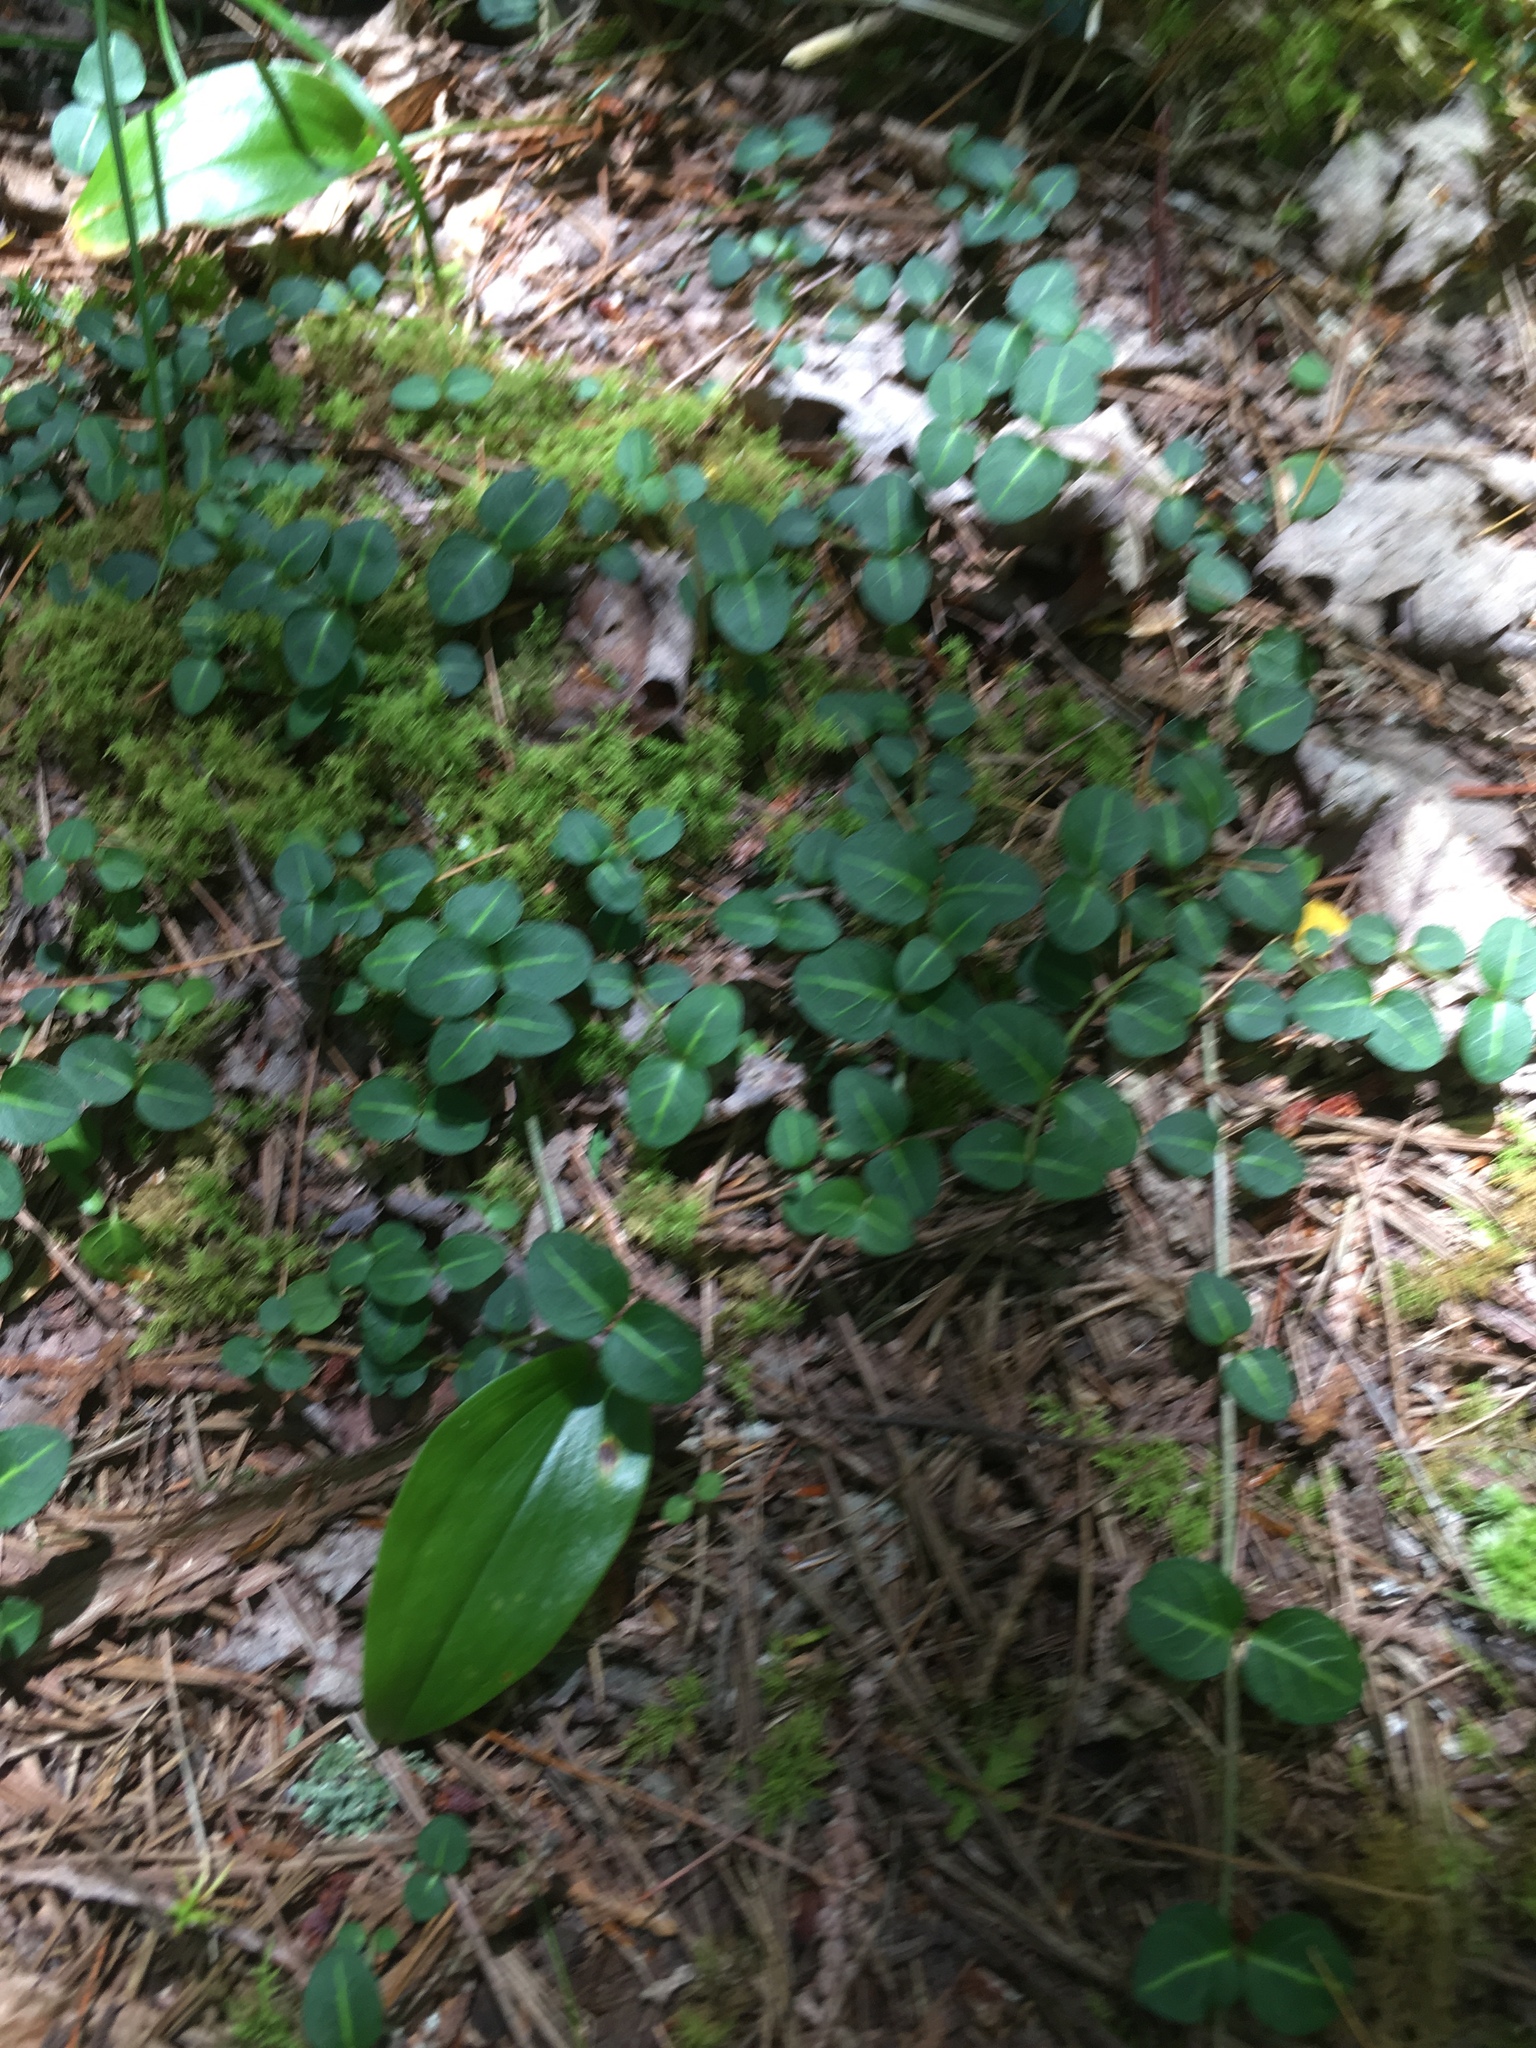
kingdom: Plantae
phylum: Tracheophyta
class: Magnoliopsida
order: Gentianales
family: Rubiaceae
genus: Mitchella
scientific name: Mitchella repens
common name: Partridge-berry
